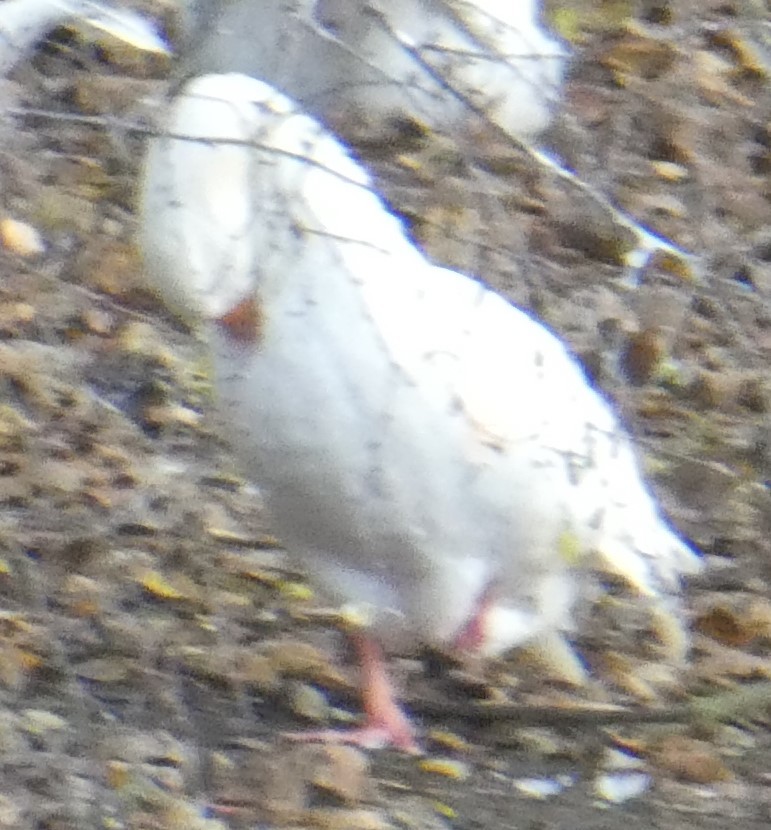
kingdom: Animalia
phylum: Chordata
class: Aves
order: Anseriformes
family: Anatidae
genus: Anser
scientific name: Anser anser
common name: Greylag goose
